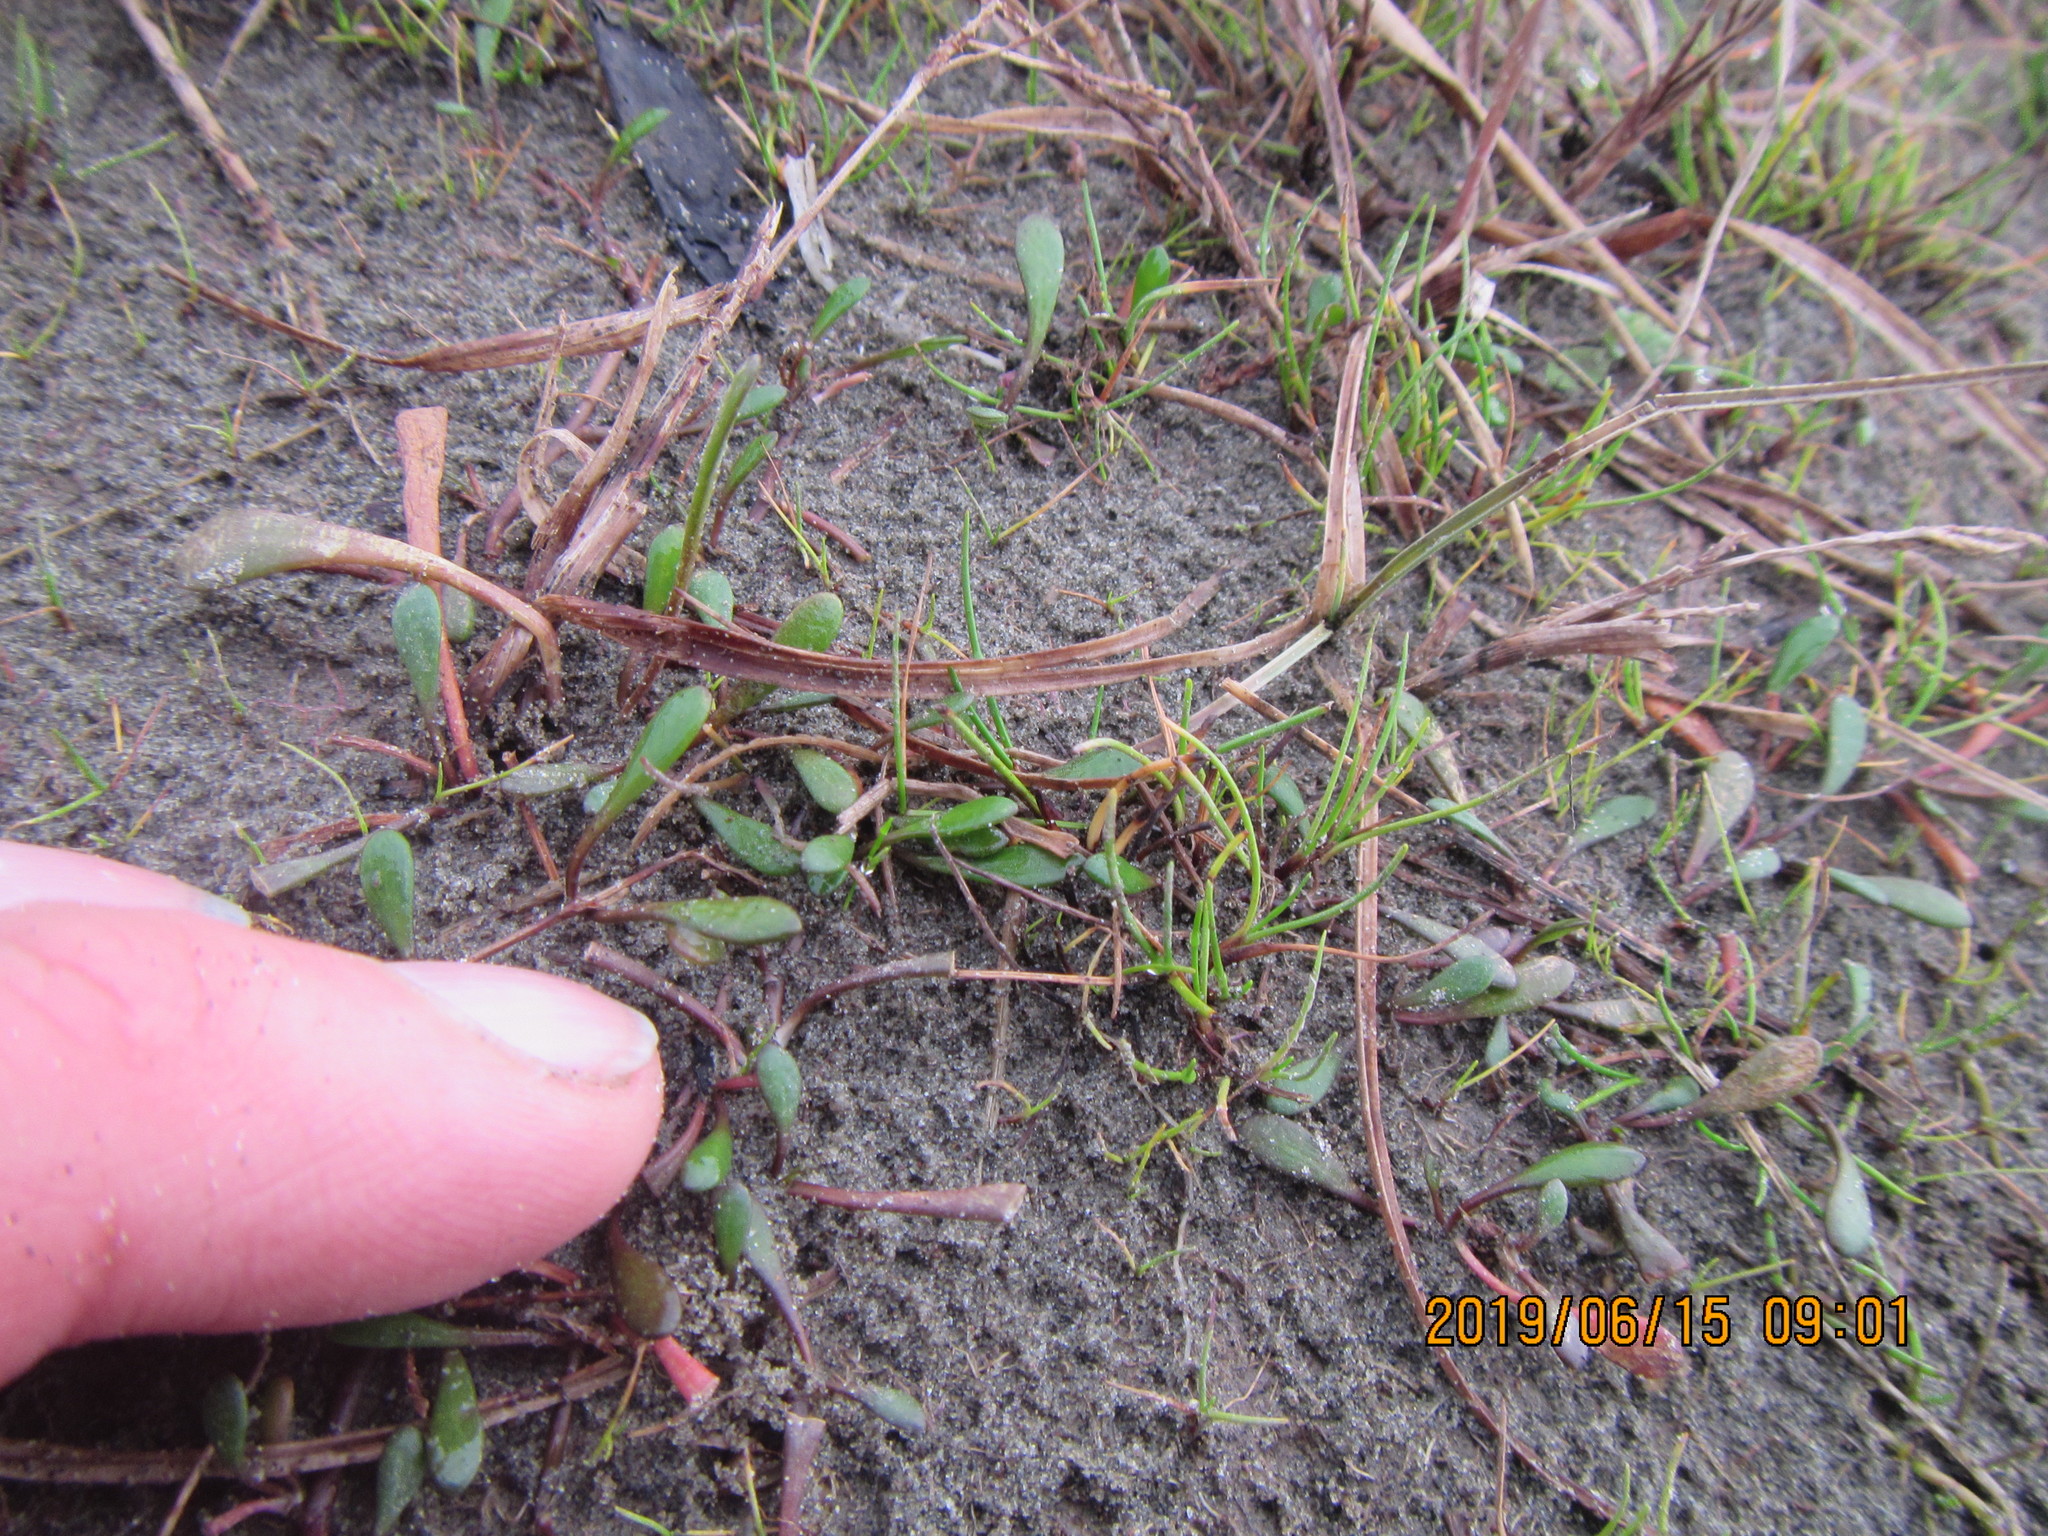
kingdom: Plantae
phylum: Tracheophyta
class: Magnoliopsida
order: Asterales
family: Goodeniaceae
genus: Goodenia
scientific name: Goodenia radicans
